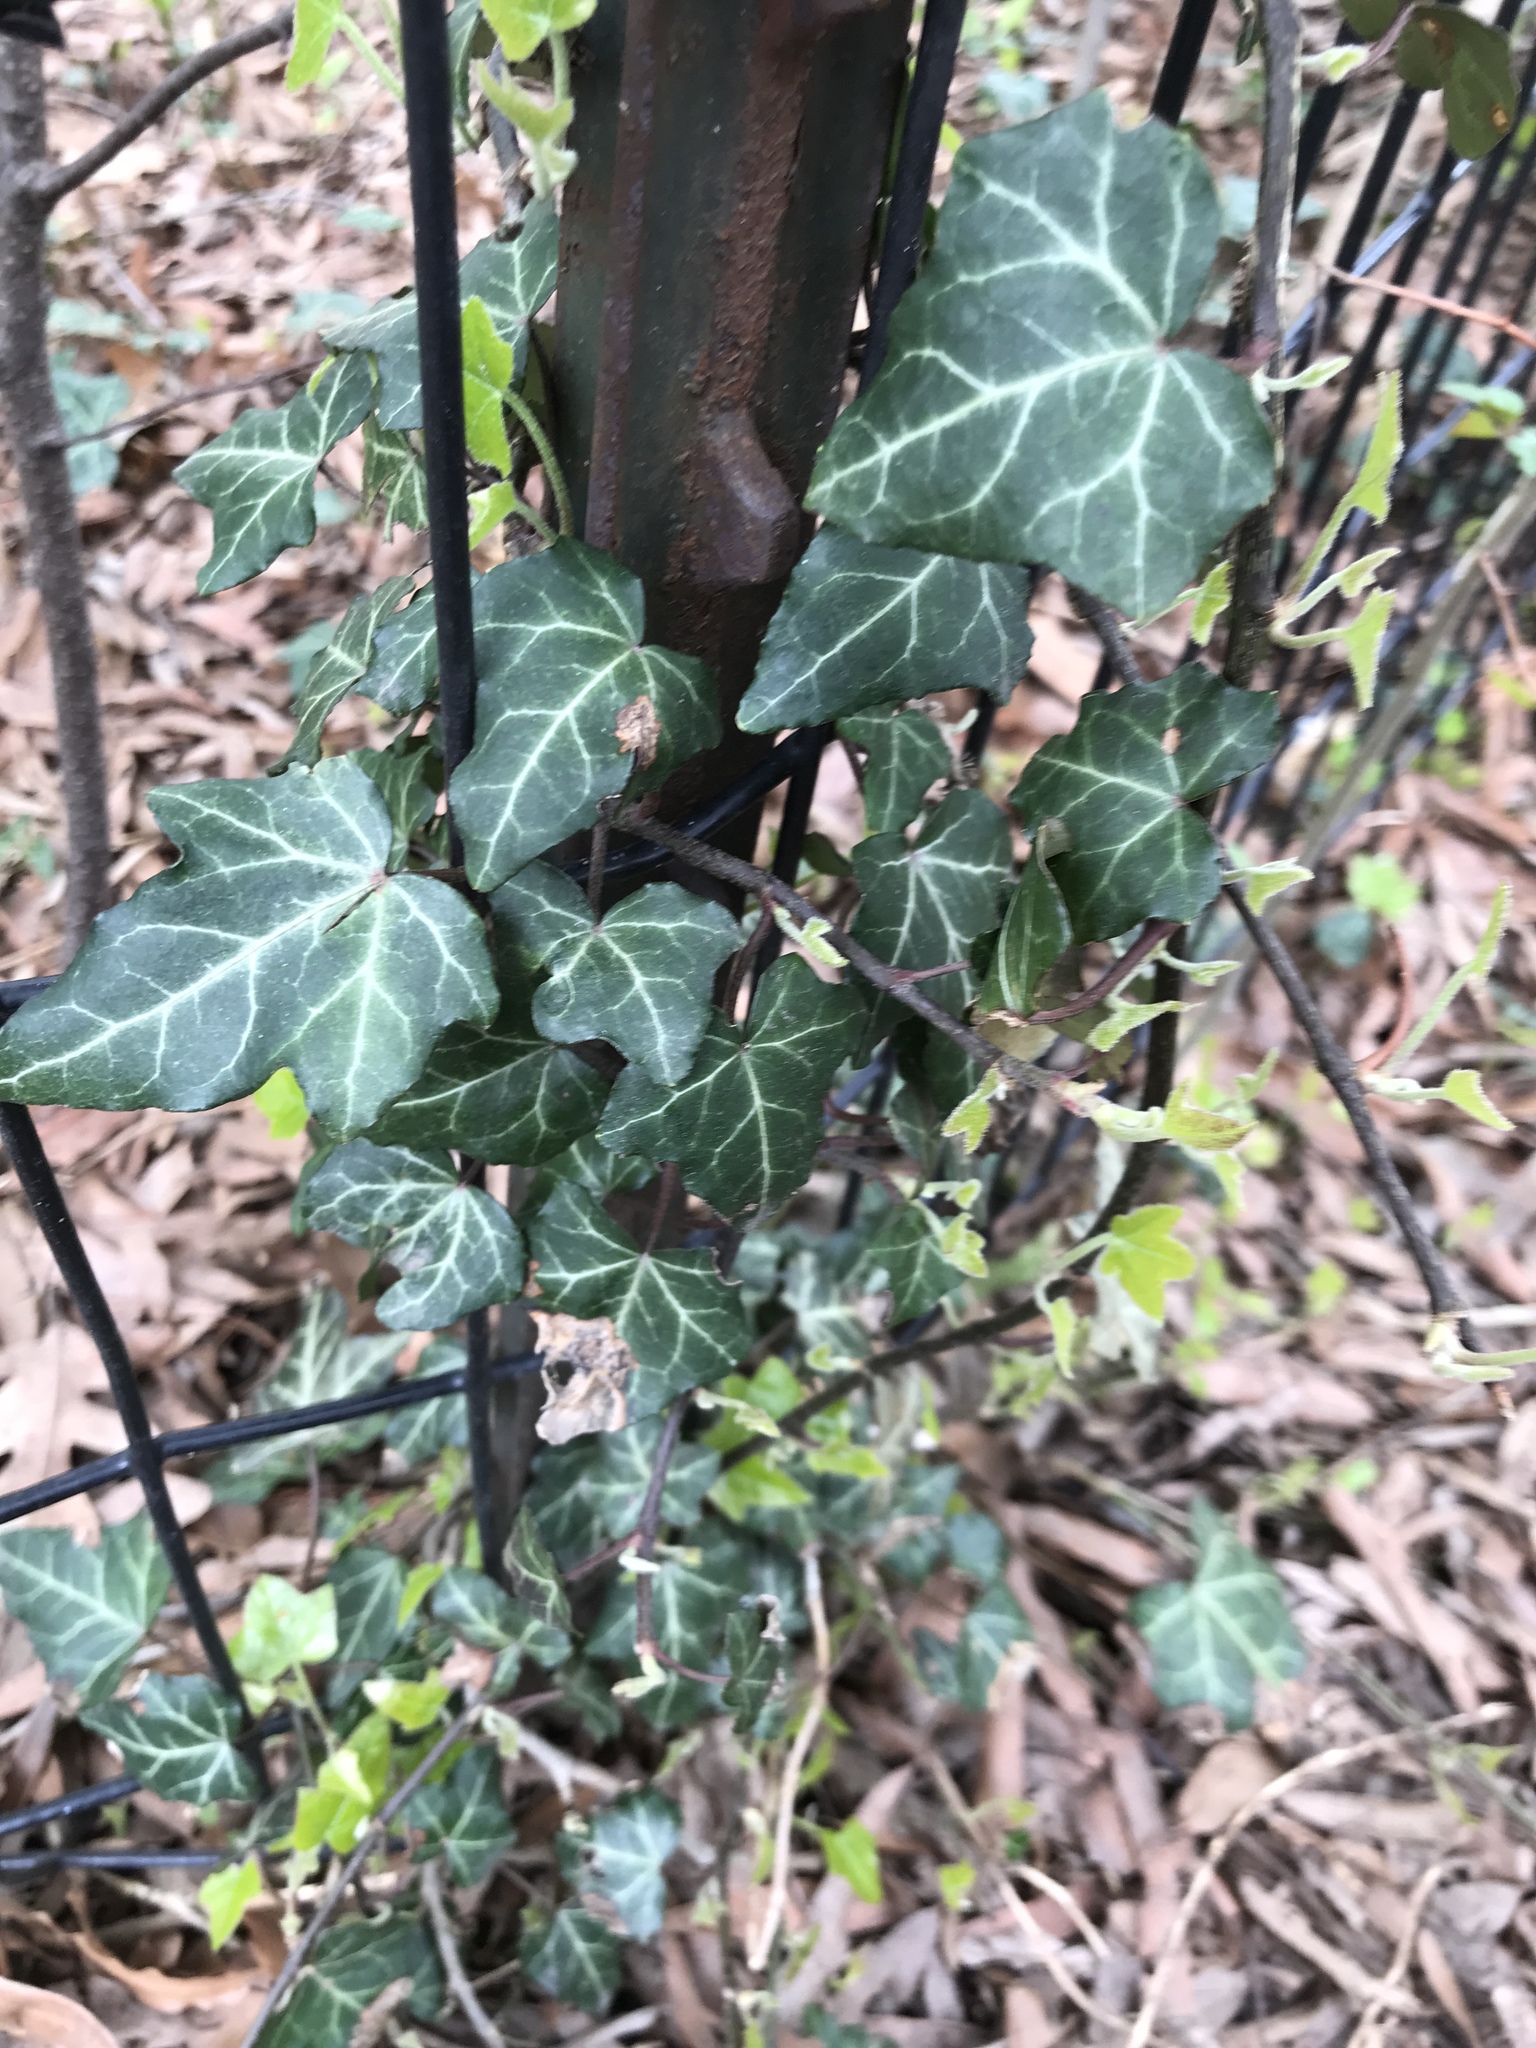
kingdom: Plantae
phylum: Tracheophyta
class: Magnoliopsida
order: Apiales
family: Araliaceae
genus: Hedera
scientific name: Hedera helix
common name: Ivy
